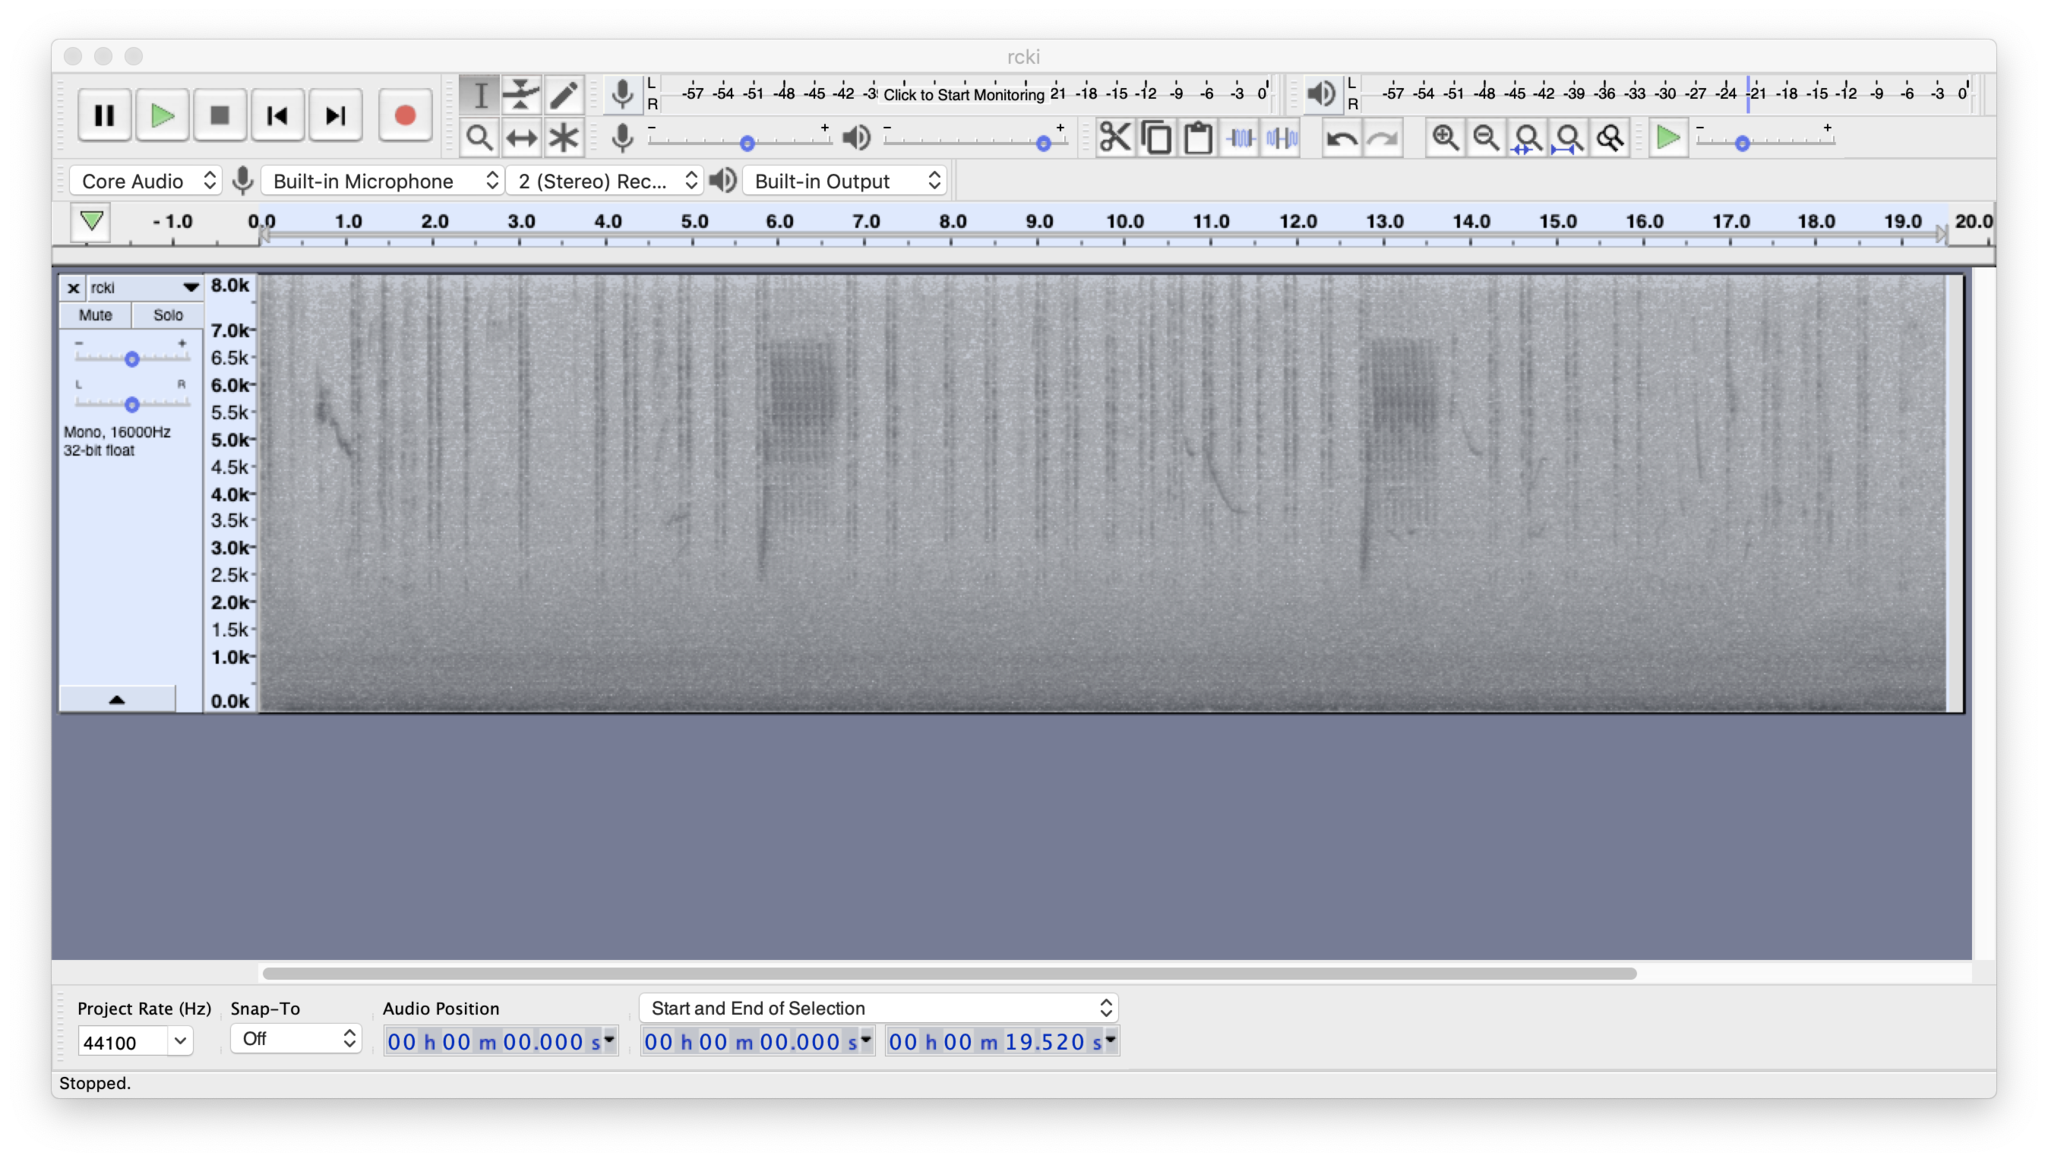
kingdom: Animalia
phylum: Chordata
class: Aves
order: Passeriformes
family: Regulidae
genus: Regulus
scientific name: Regulus calendula
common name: Ruby-crowned kinglet
